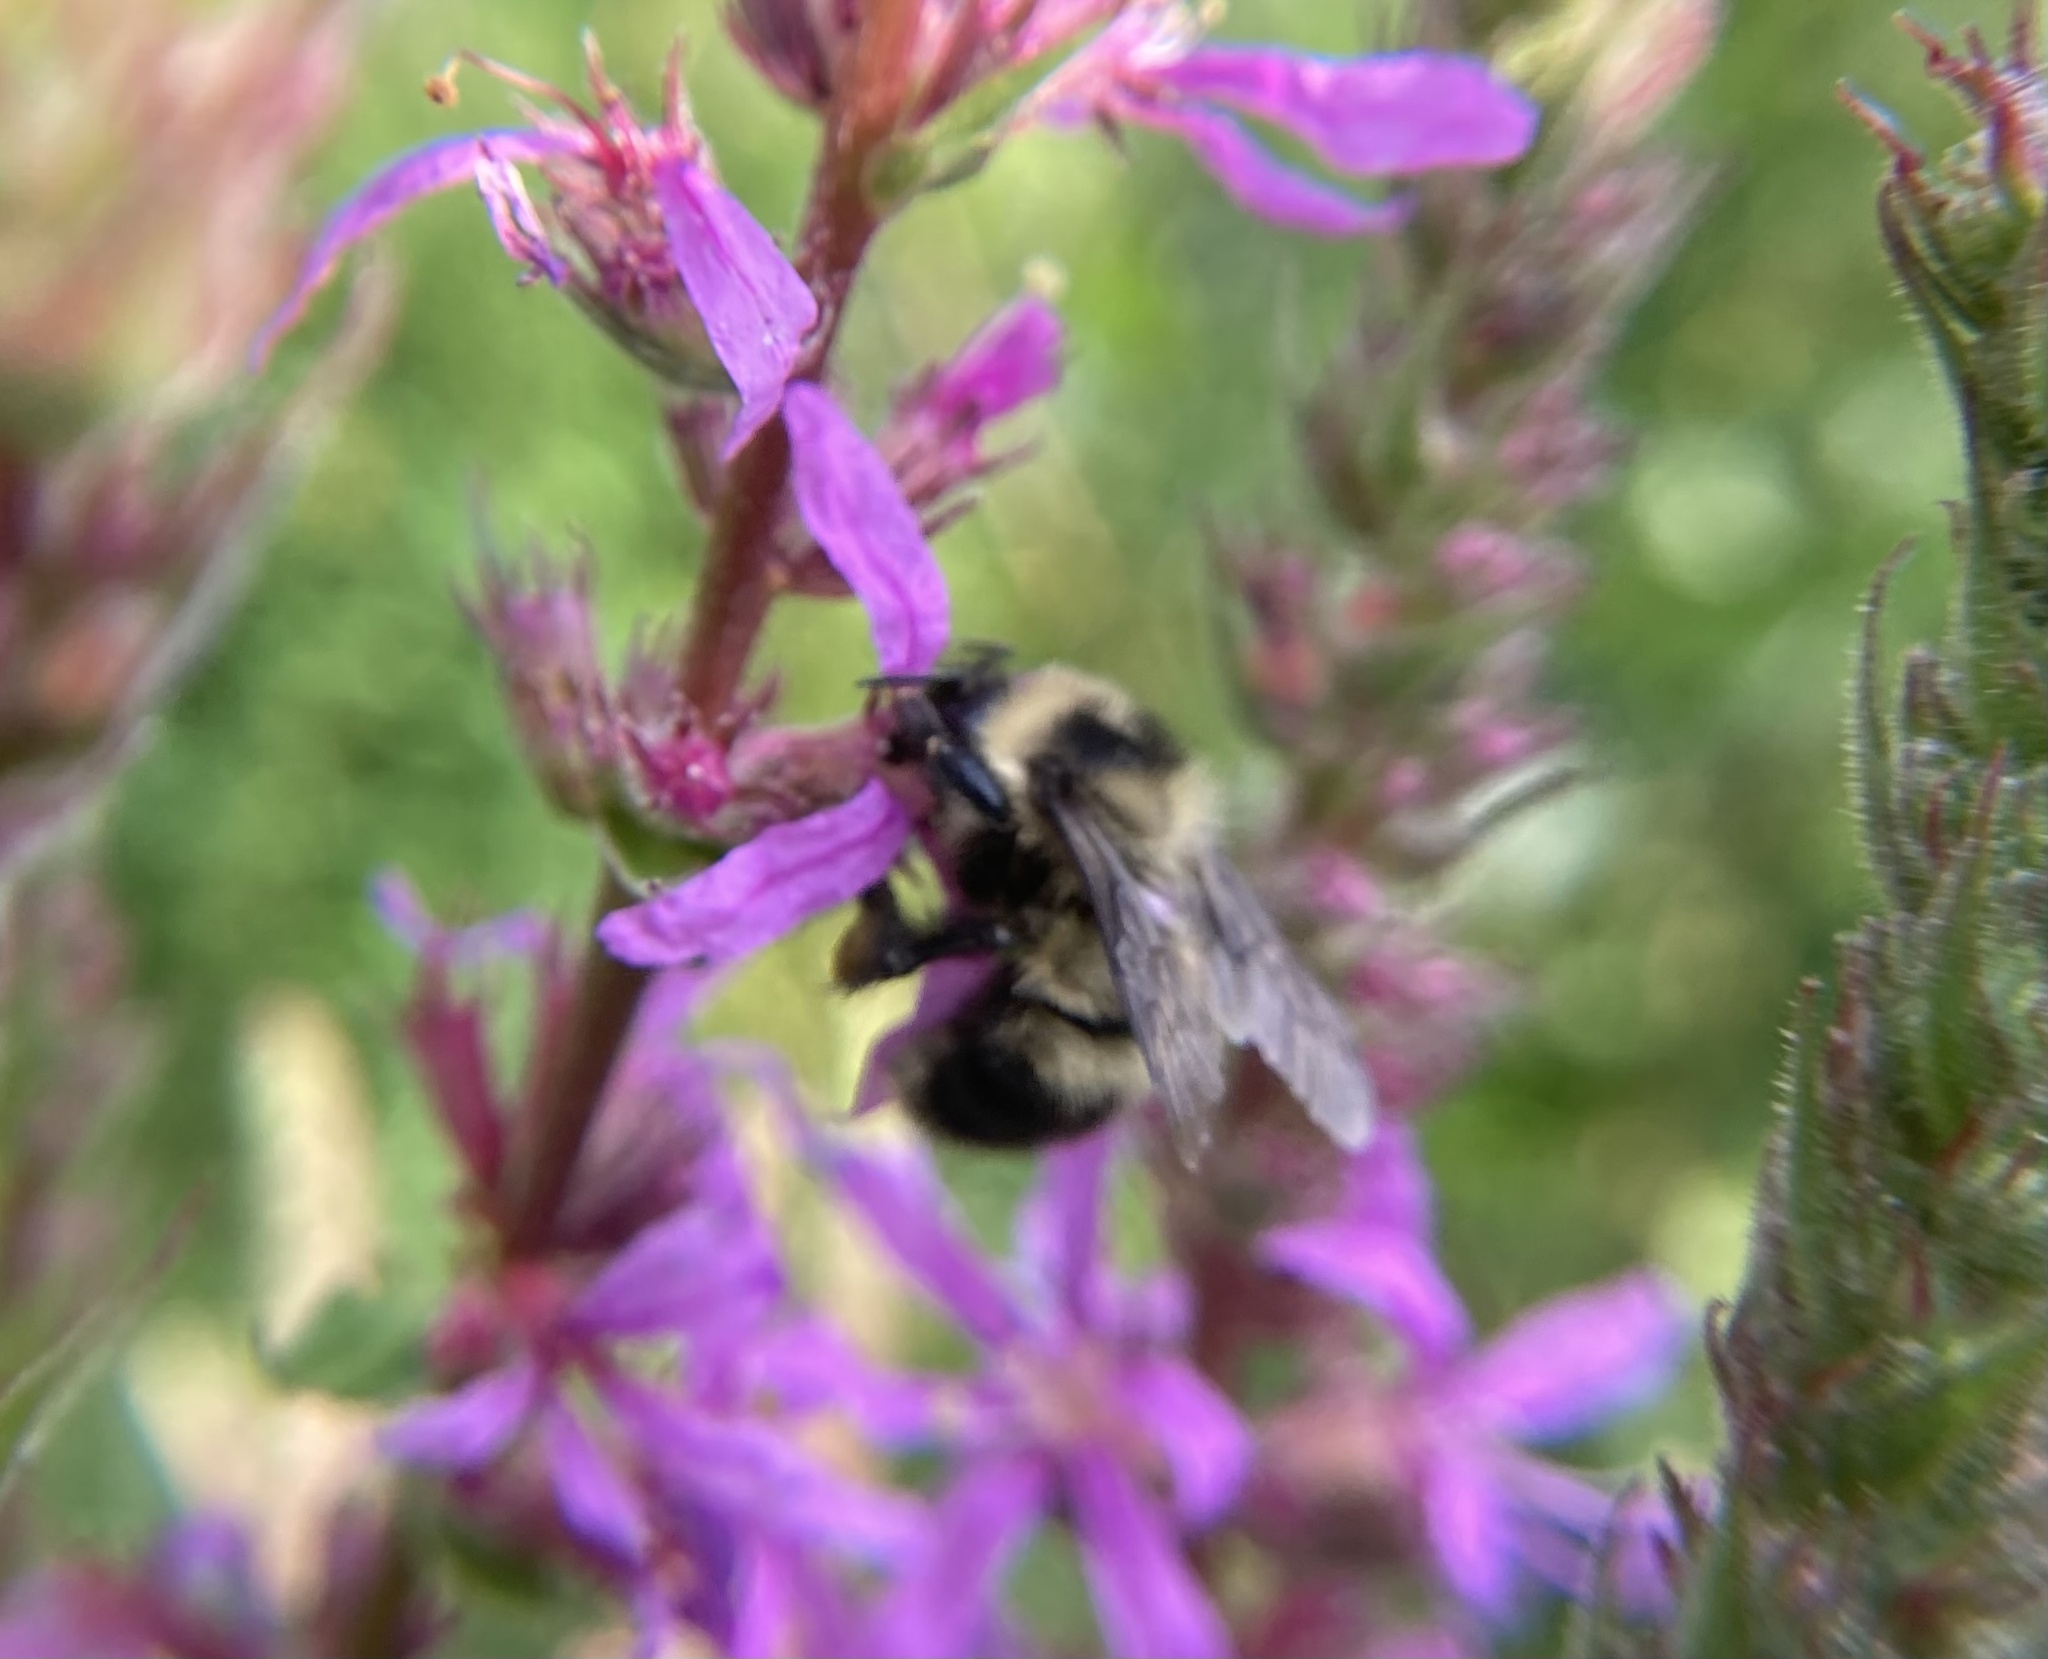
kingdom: Animalia
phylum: Arthropoda
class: Insecta
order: Hymenoptera
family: Apidae
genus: Bombus
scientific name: Bombus rufocinctus
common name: Red-belted bumble bee
